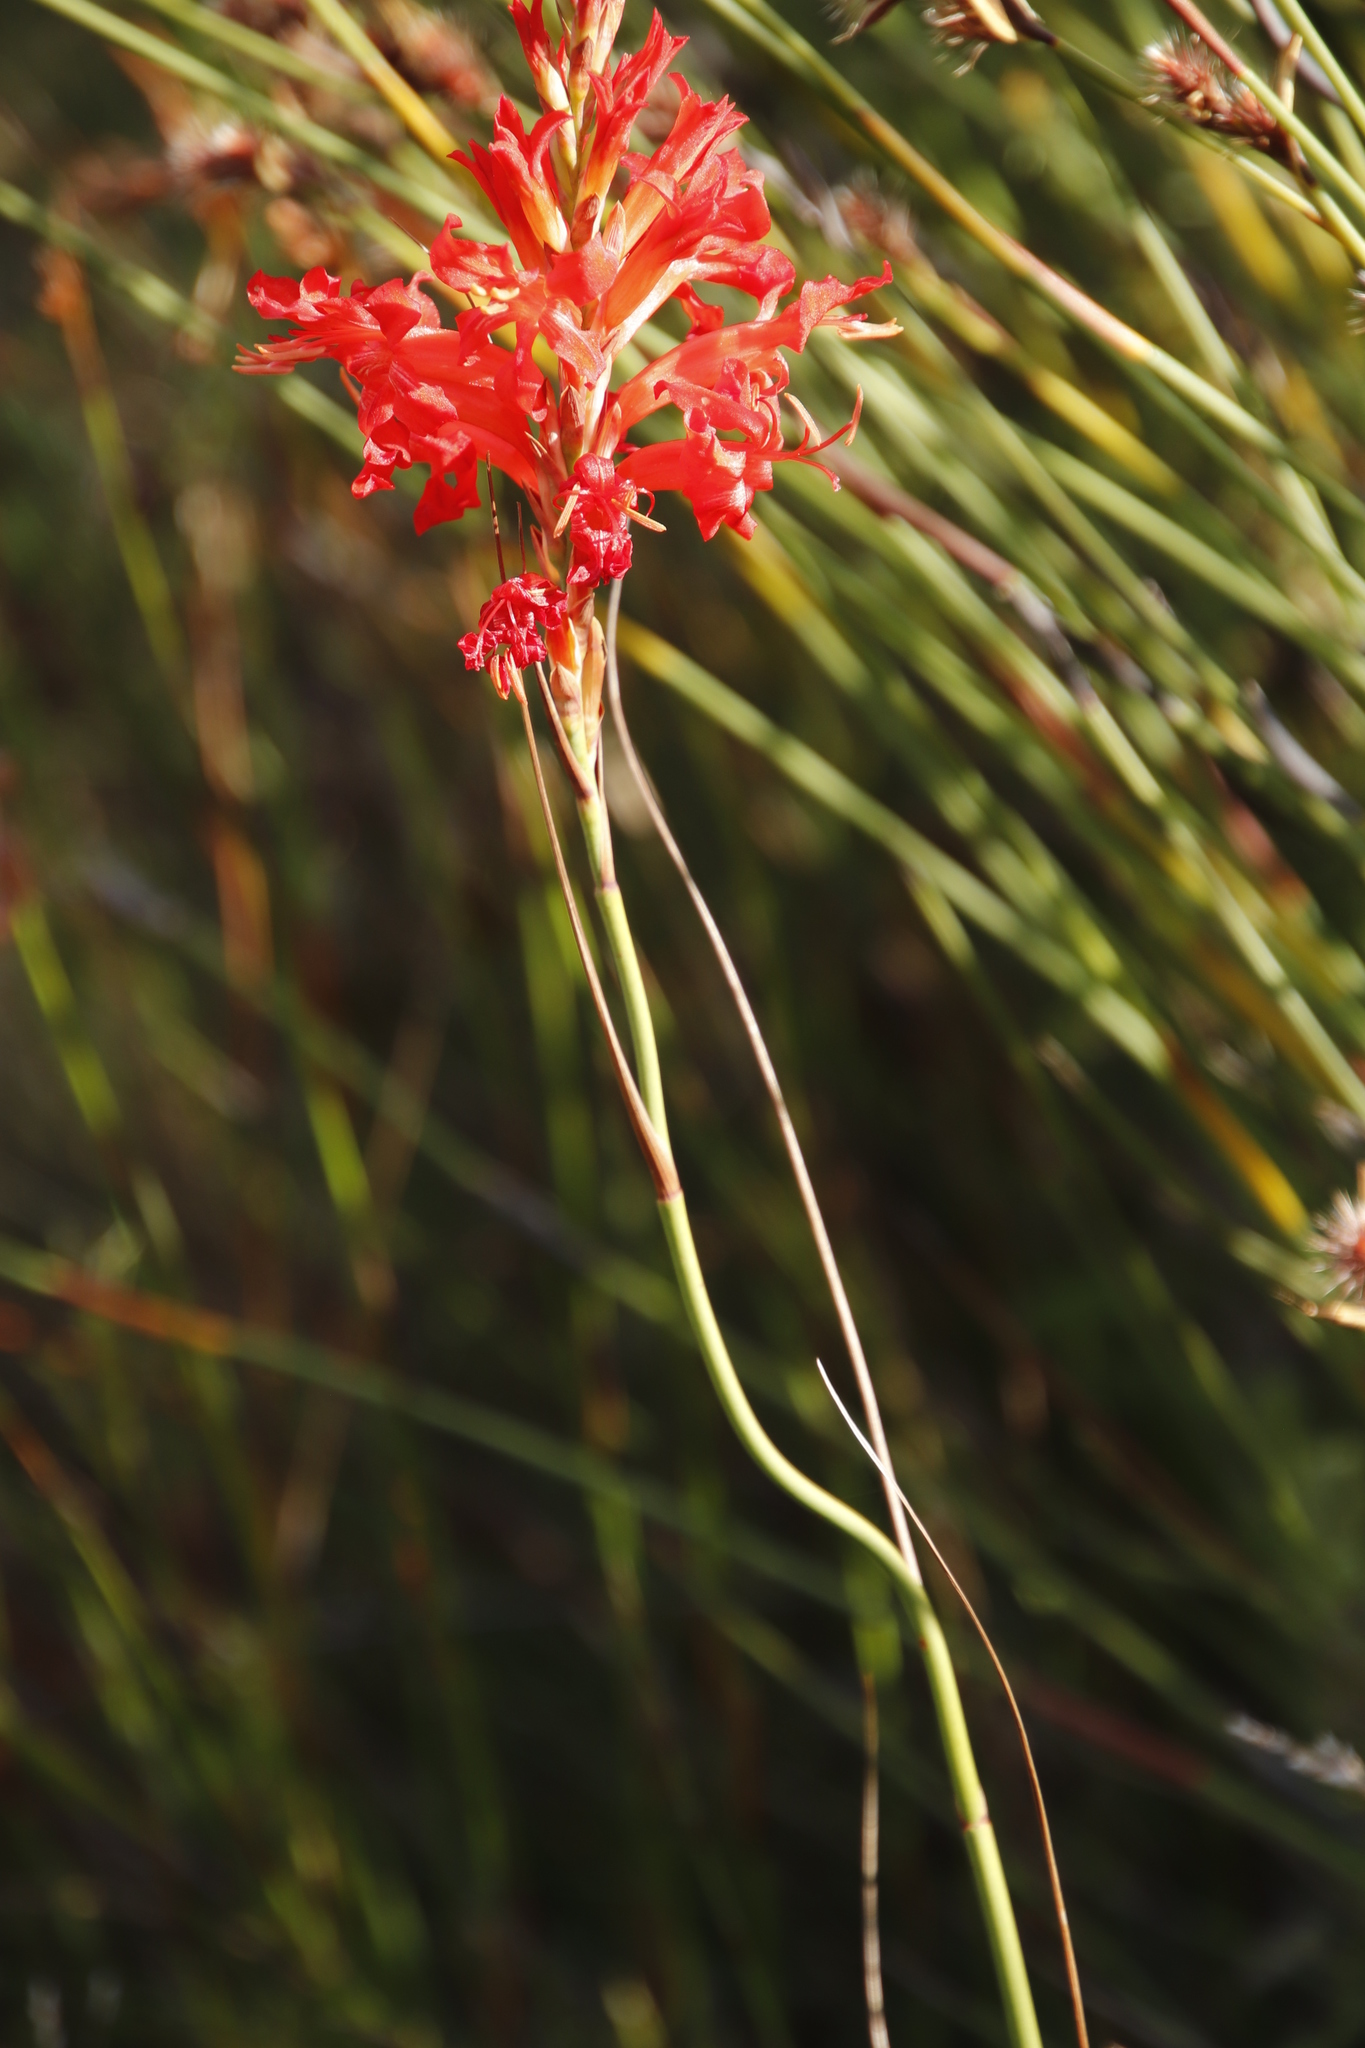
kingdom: Plantae
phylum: Tracheophyta
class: Liliopsida
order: Asparagales
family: Iridaceae
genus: Tritoniopsis
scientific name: Tritoniopsis triticea
